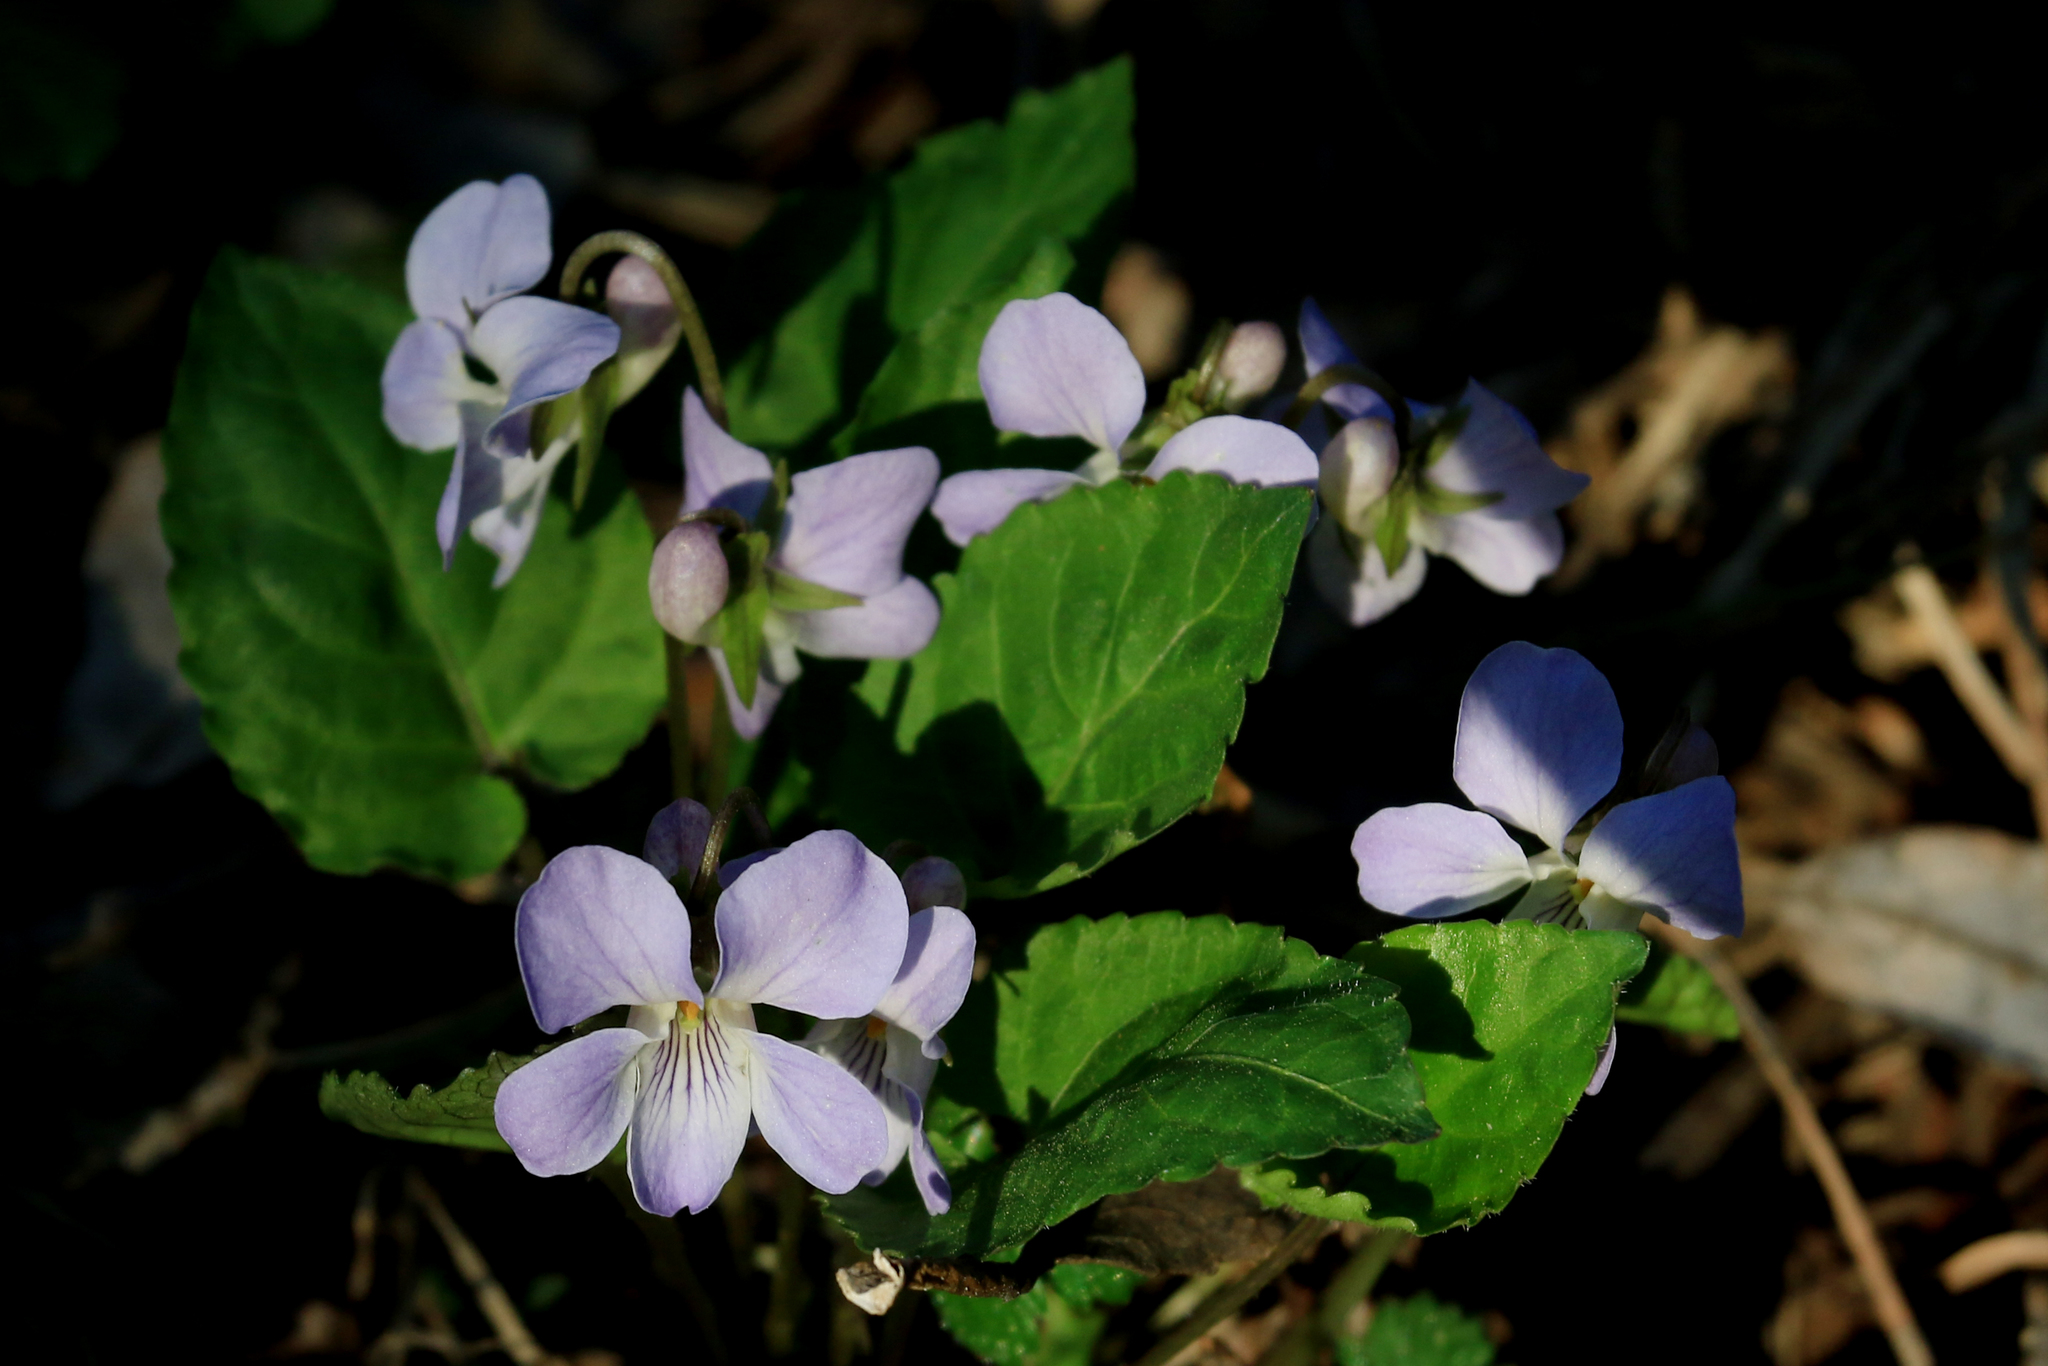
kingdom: Plantae
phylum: Tracheophyta
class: Magnoliopsida
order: Malpighiales
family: Violaceae
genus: Viola
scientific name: Viola selkirkii
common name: Selkirk's violet
